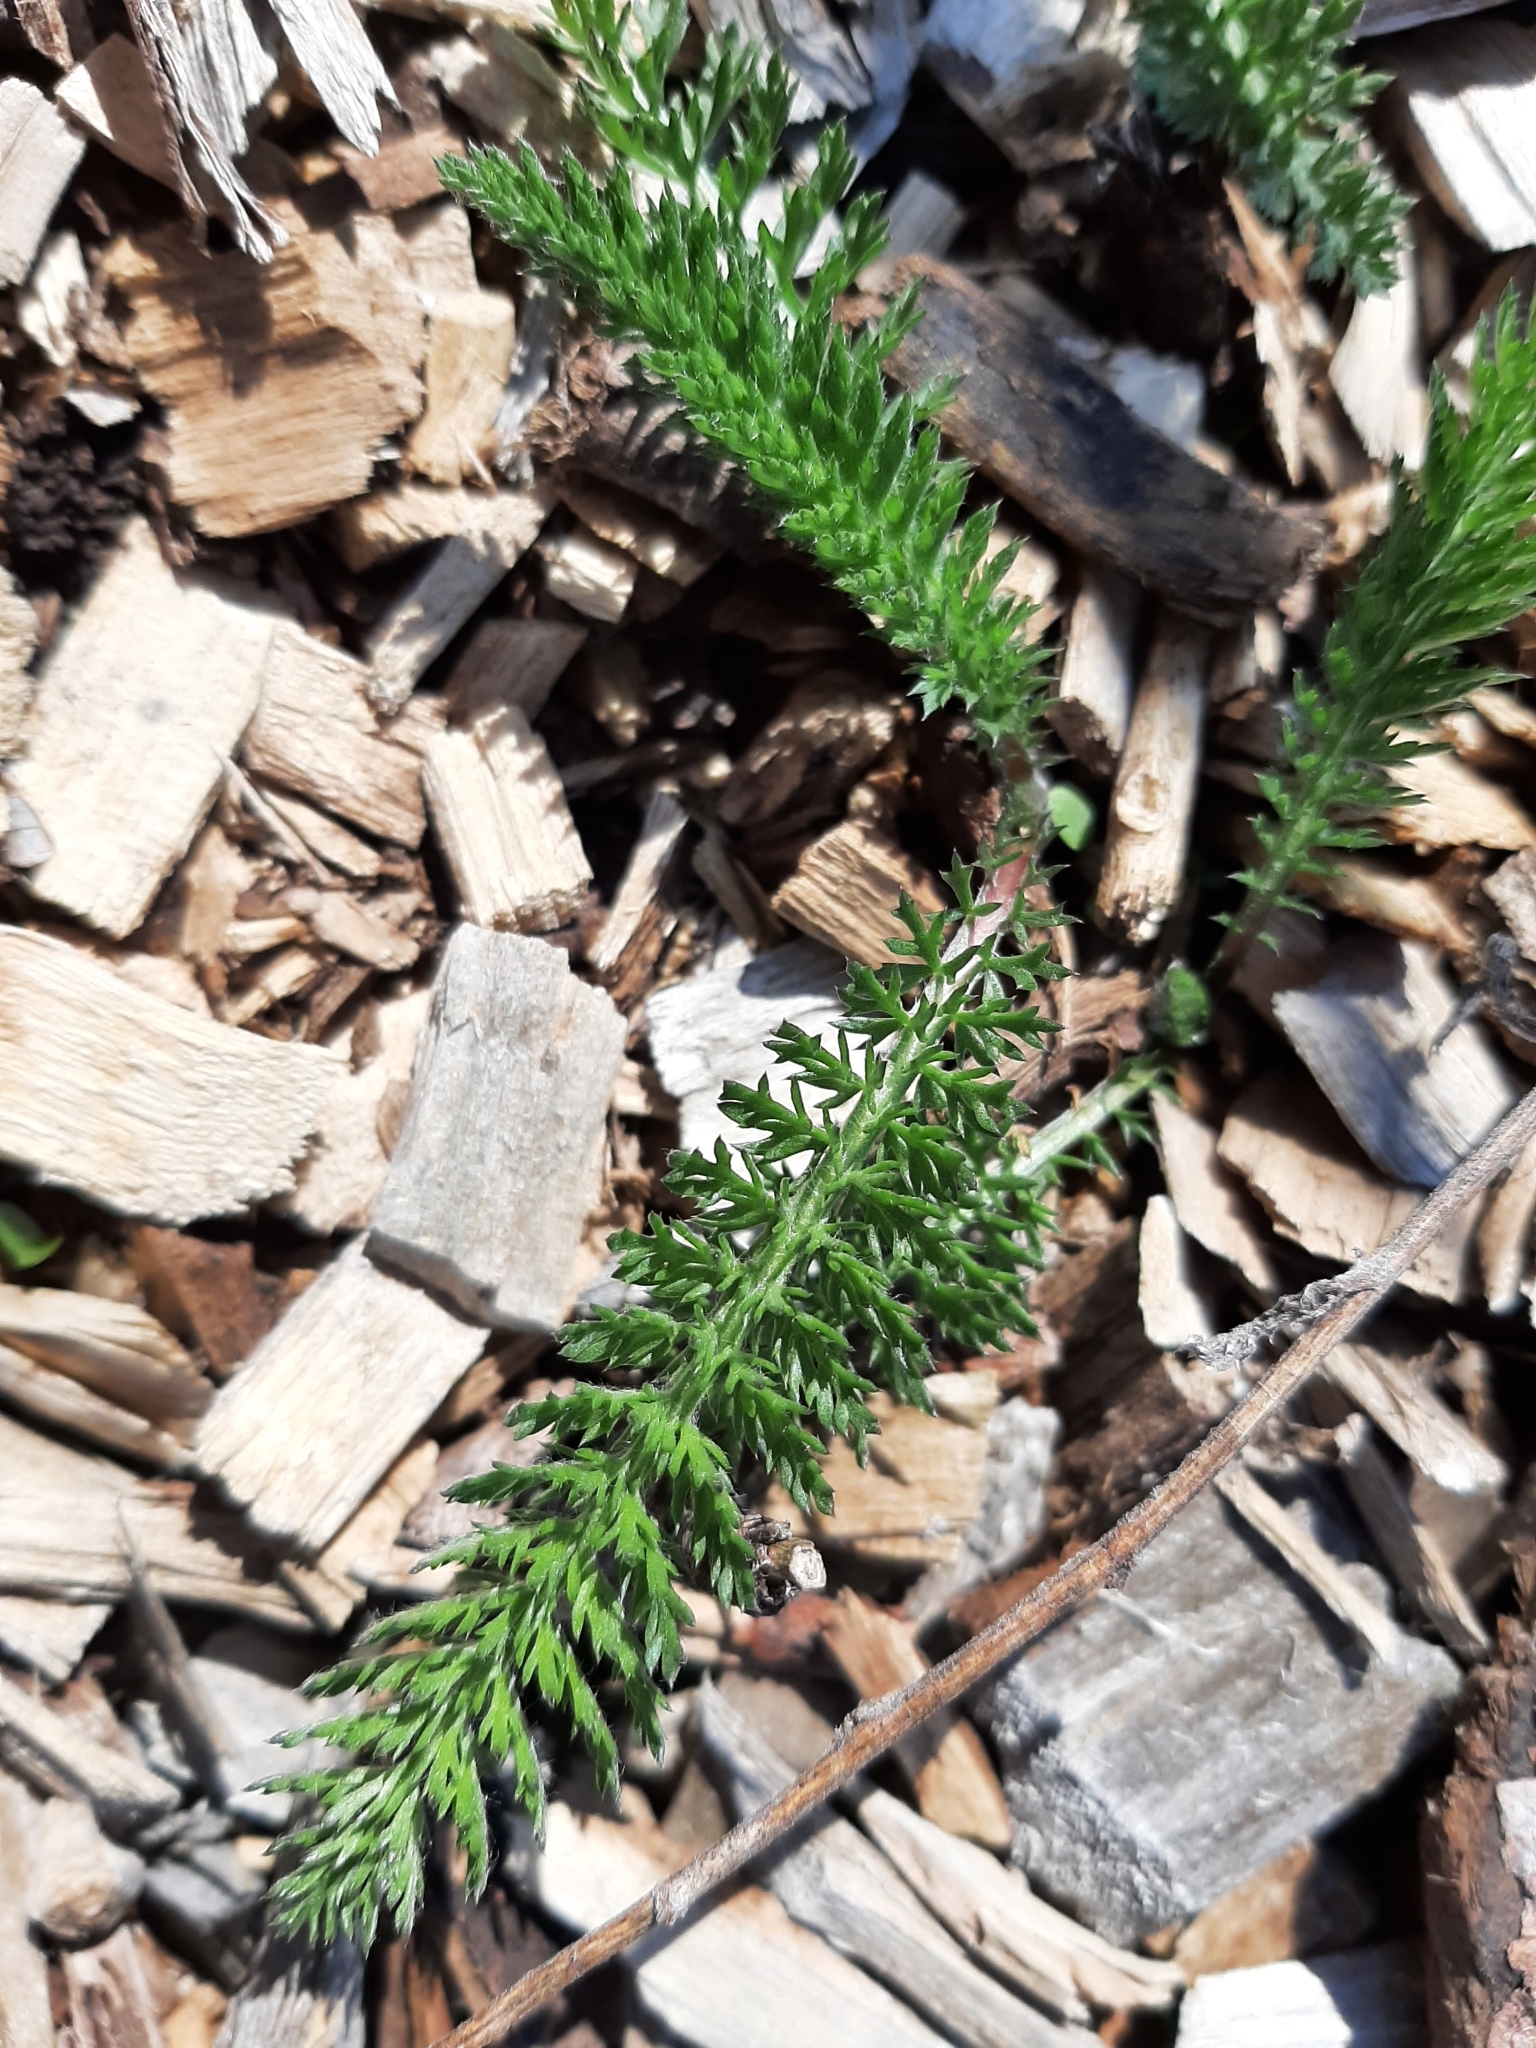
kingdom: Plantae
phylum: Tracheophyta
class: Magnoliopsida
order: Asterales
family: Asteraceae
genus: Achillea
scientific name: Achillea millefolium
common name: Yarrow
